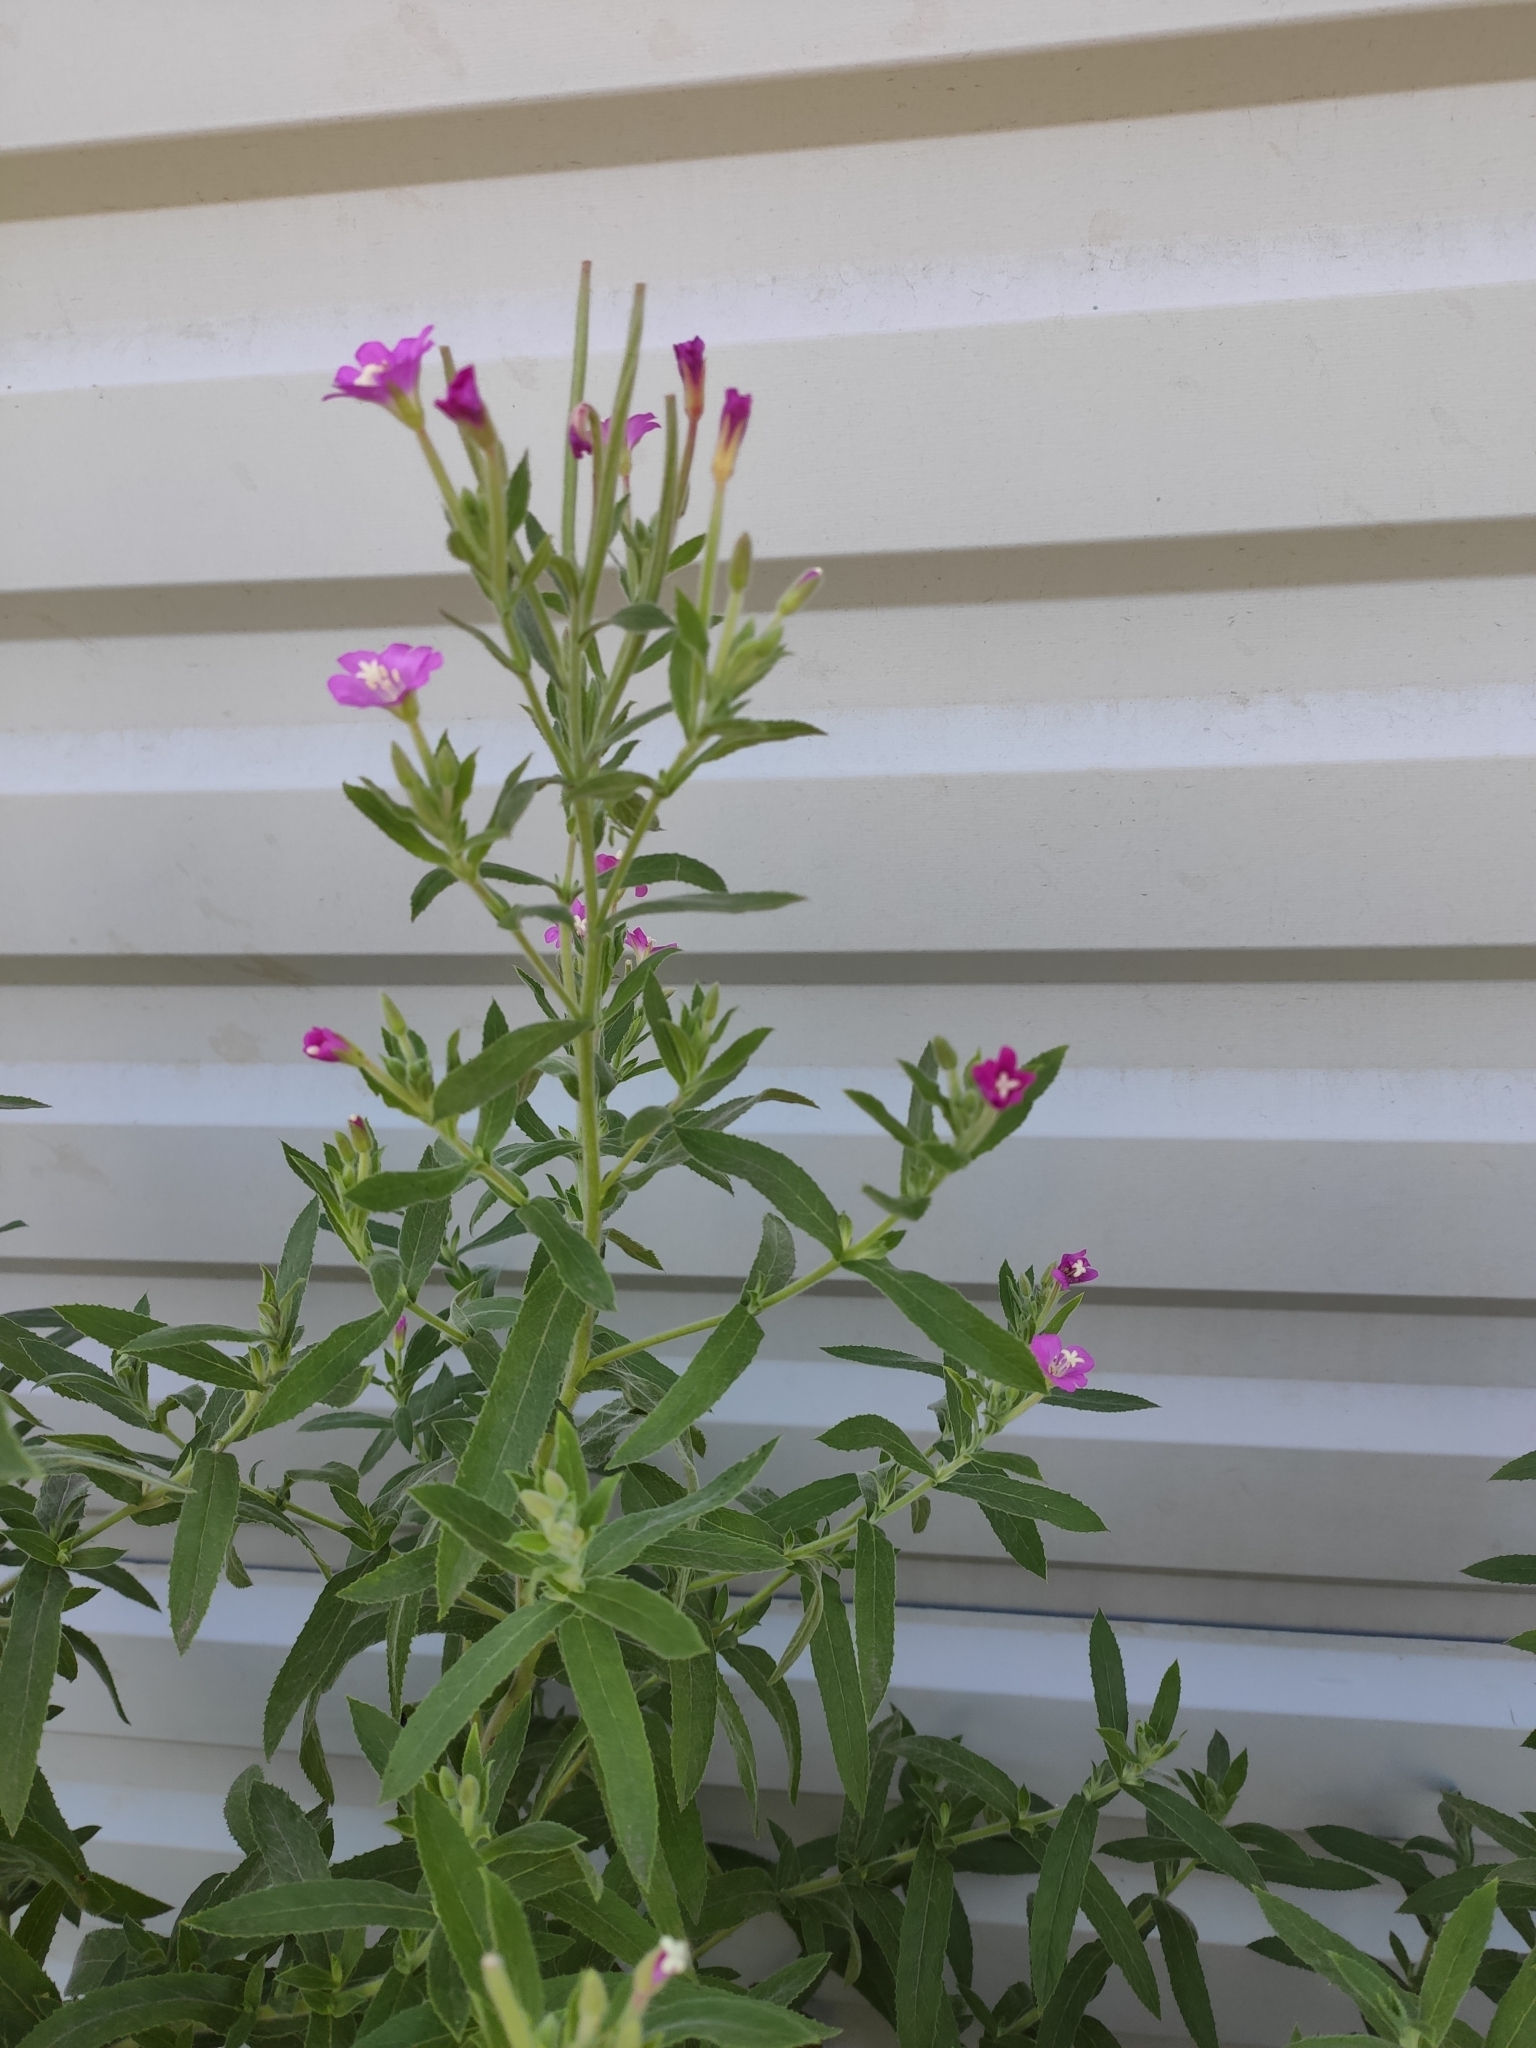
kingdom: Plantae
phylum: Tracheophyta
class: Magnoliopsida
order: Myrtales
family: Onagraceae
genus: Epilobium
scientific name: Epilobium hirsutum
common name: Great willowherb
